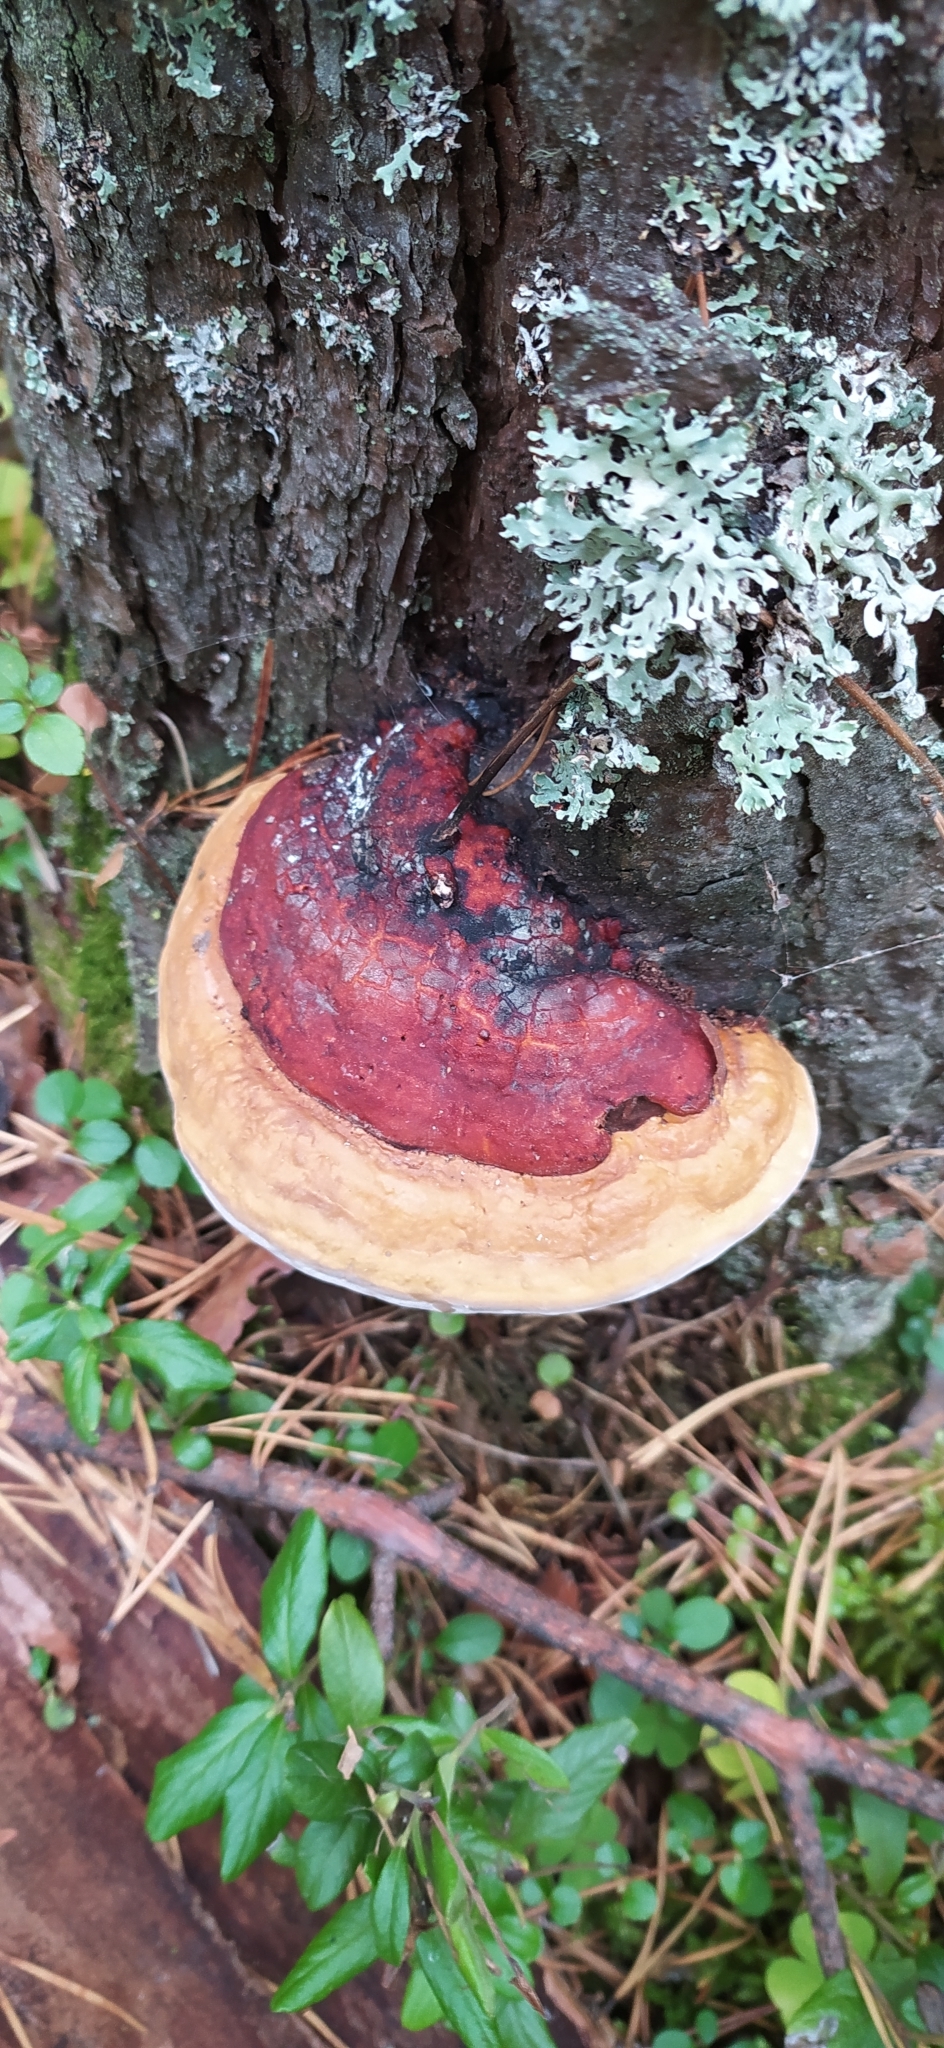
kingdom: Fungi
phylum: Basidiomycota
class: Agaricomycetes
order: Polyporales
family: Fomitopsidaceae
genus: Fomitopsis
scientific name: Fomitopsis pinicola
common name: Red-belted bracket
